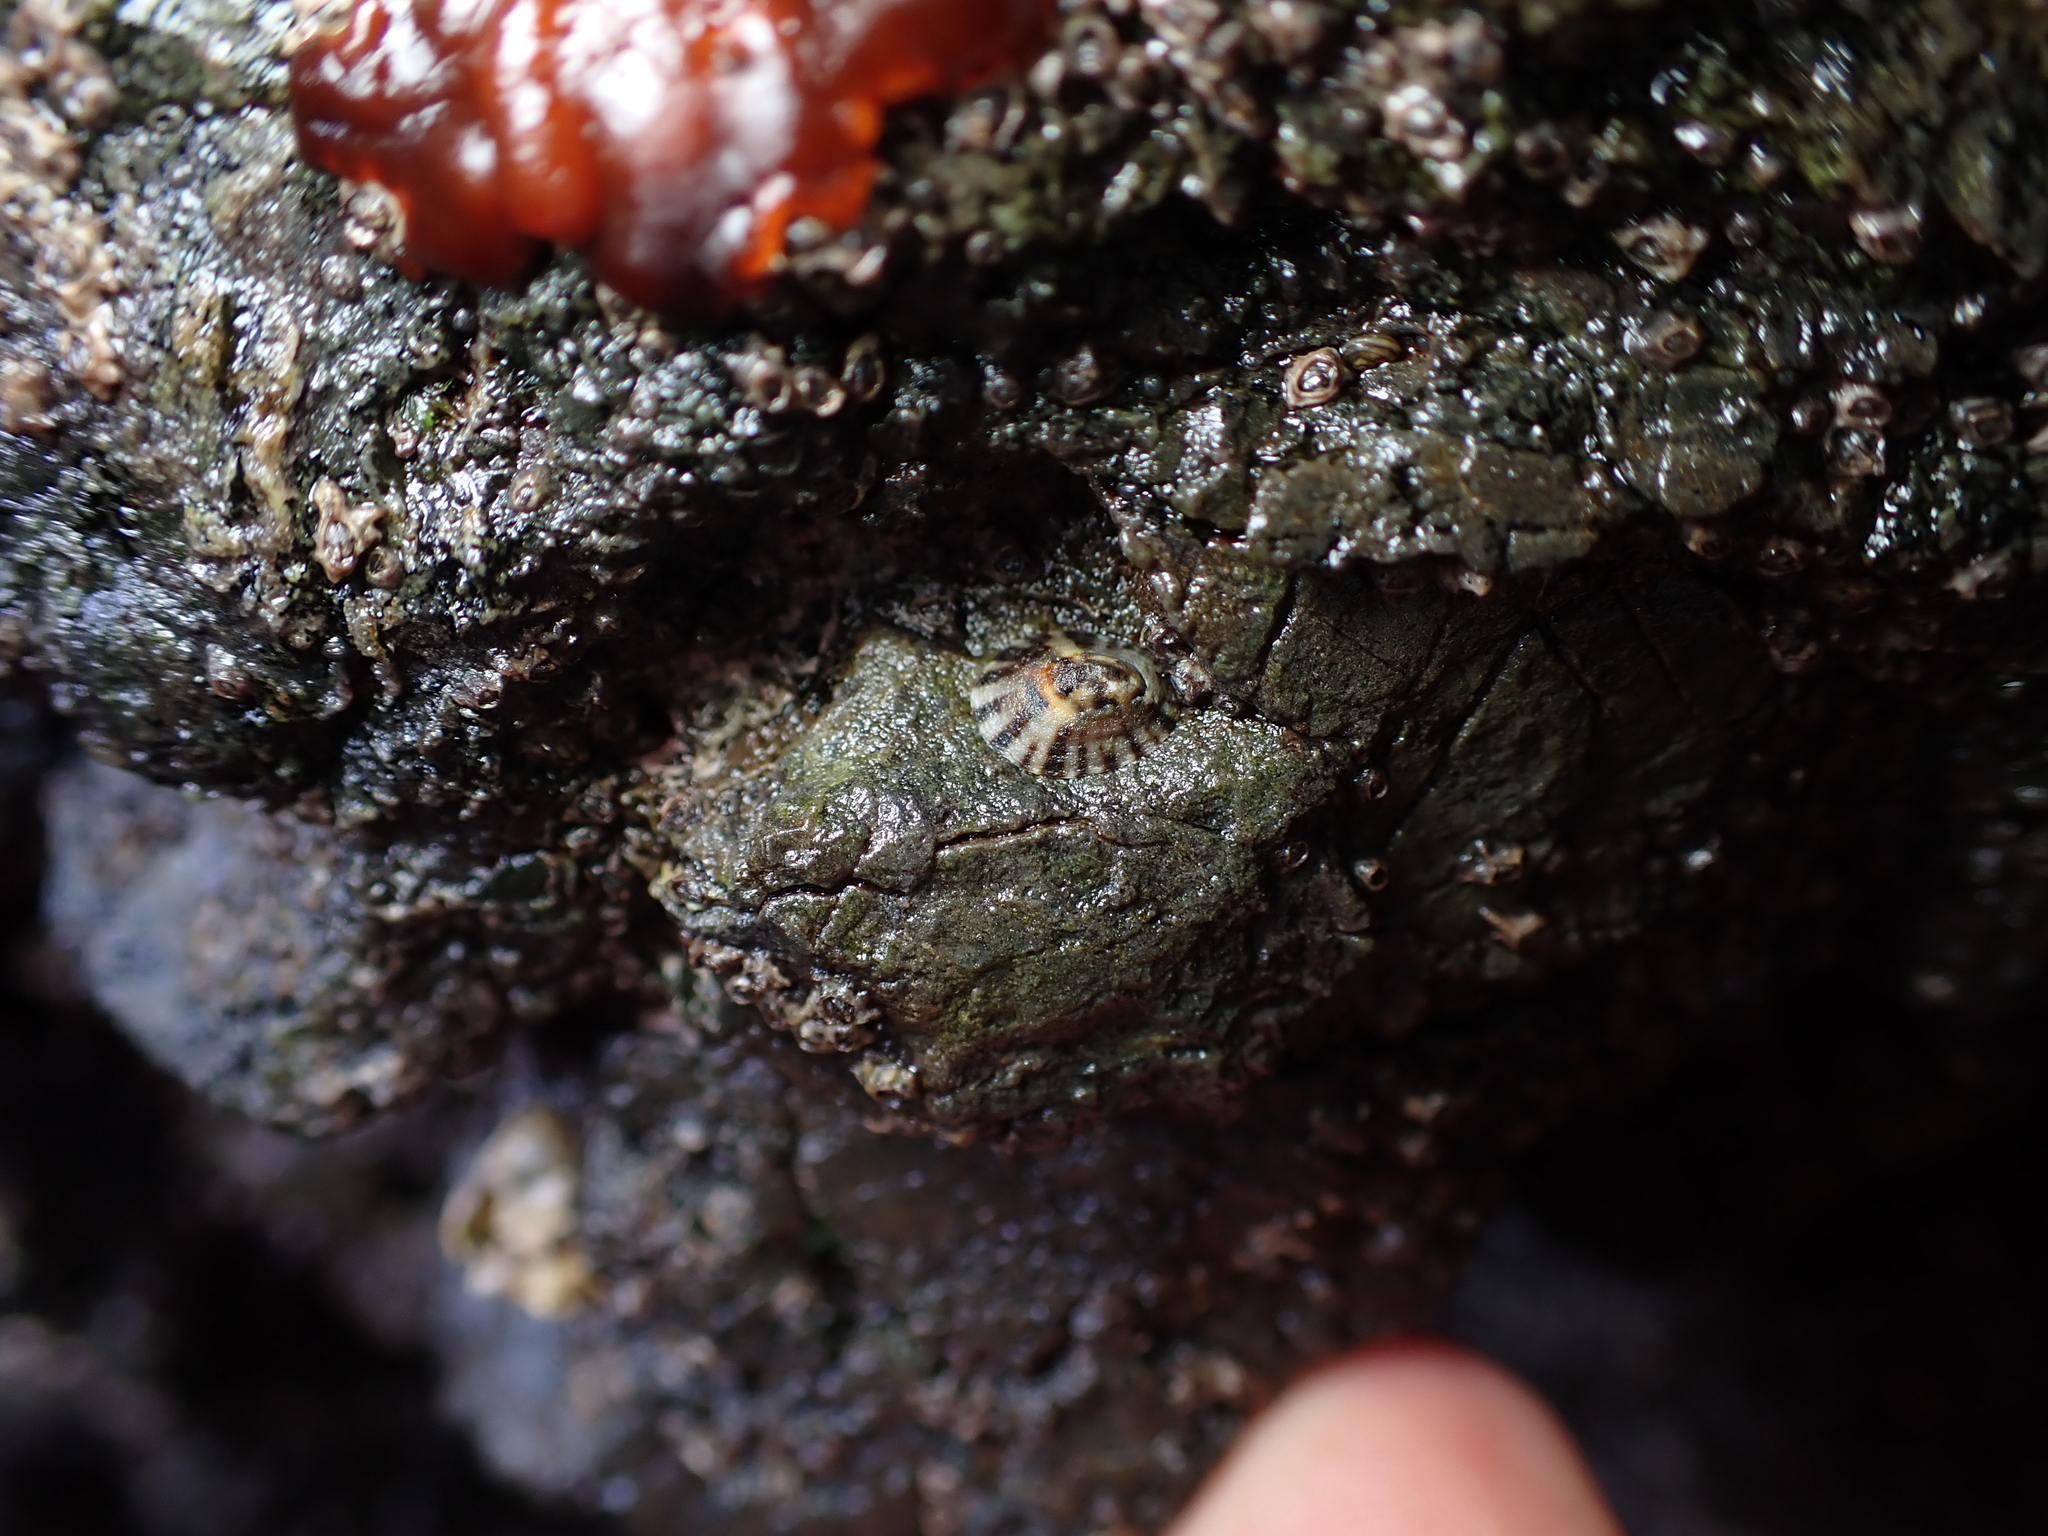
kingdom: Animalia
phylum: Mollusca
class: Gastropoda
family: Lottiidae
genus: Notoacmea
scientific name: Notoacmea parviconoidea
